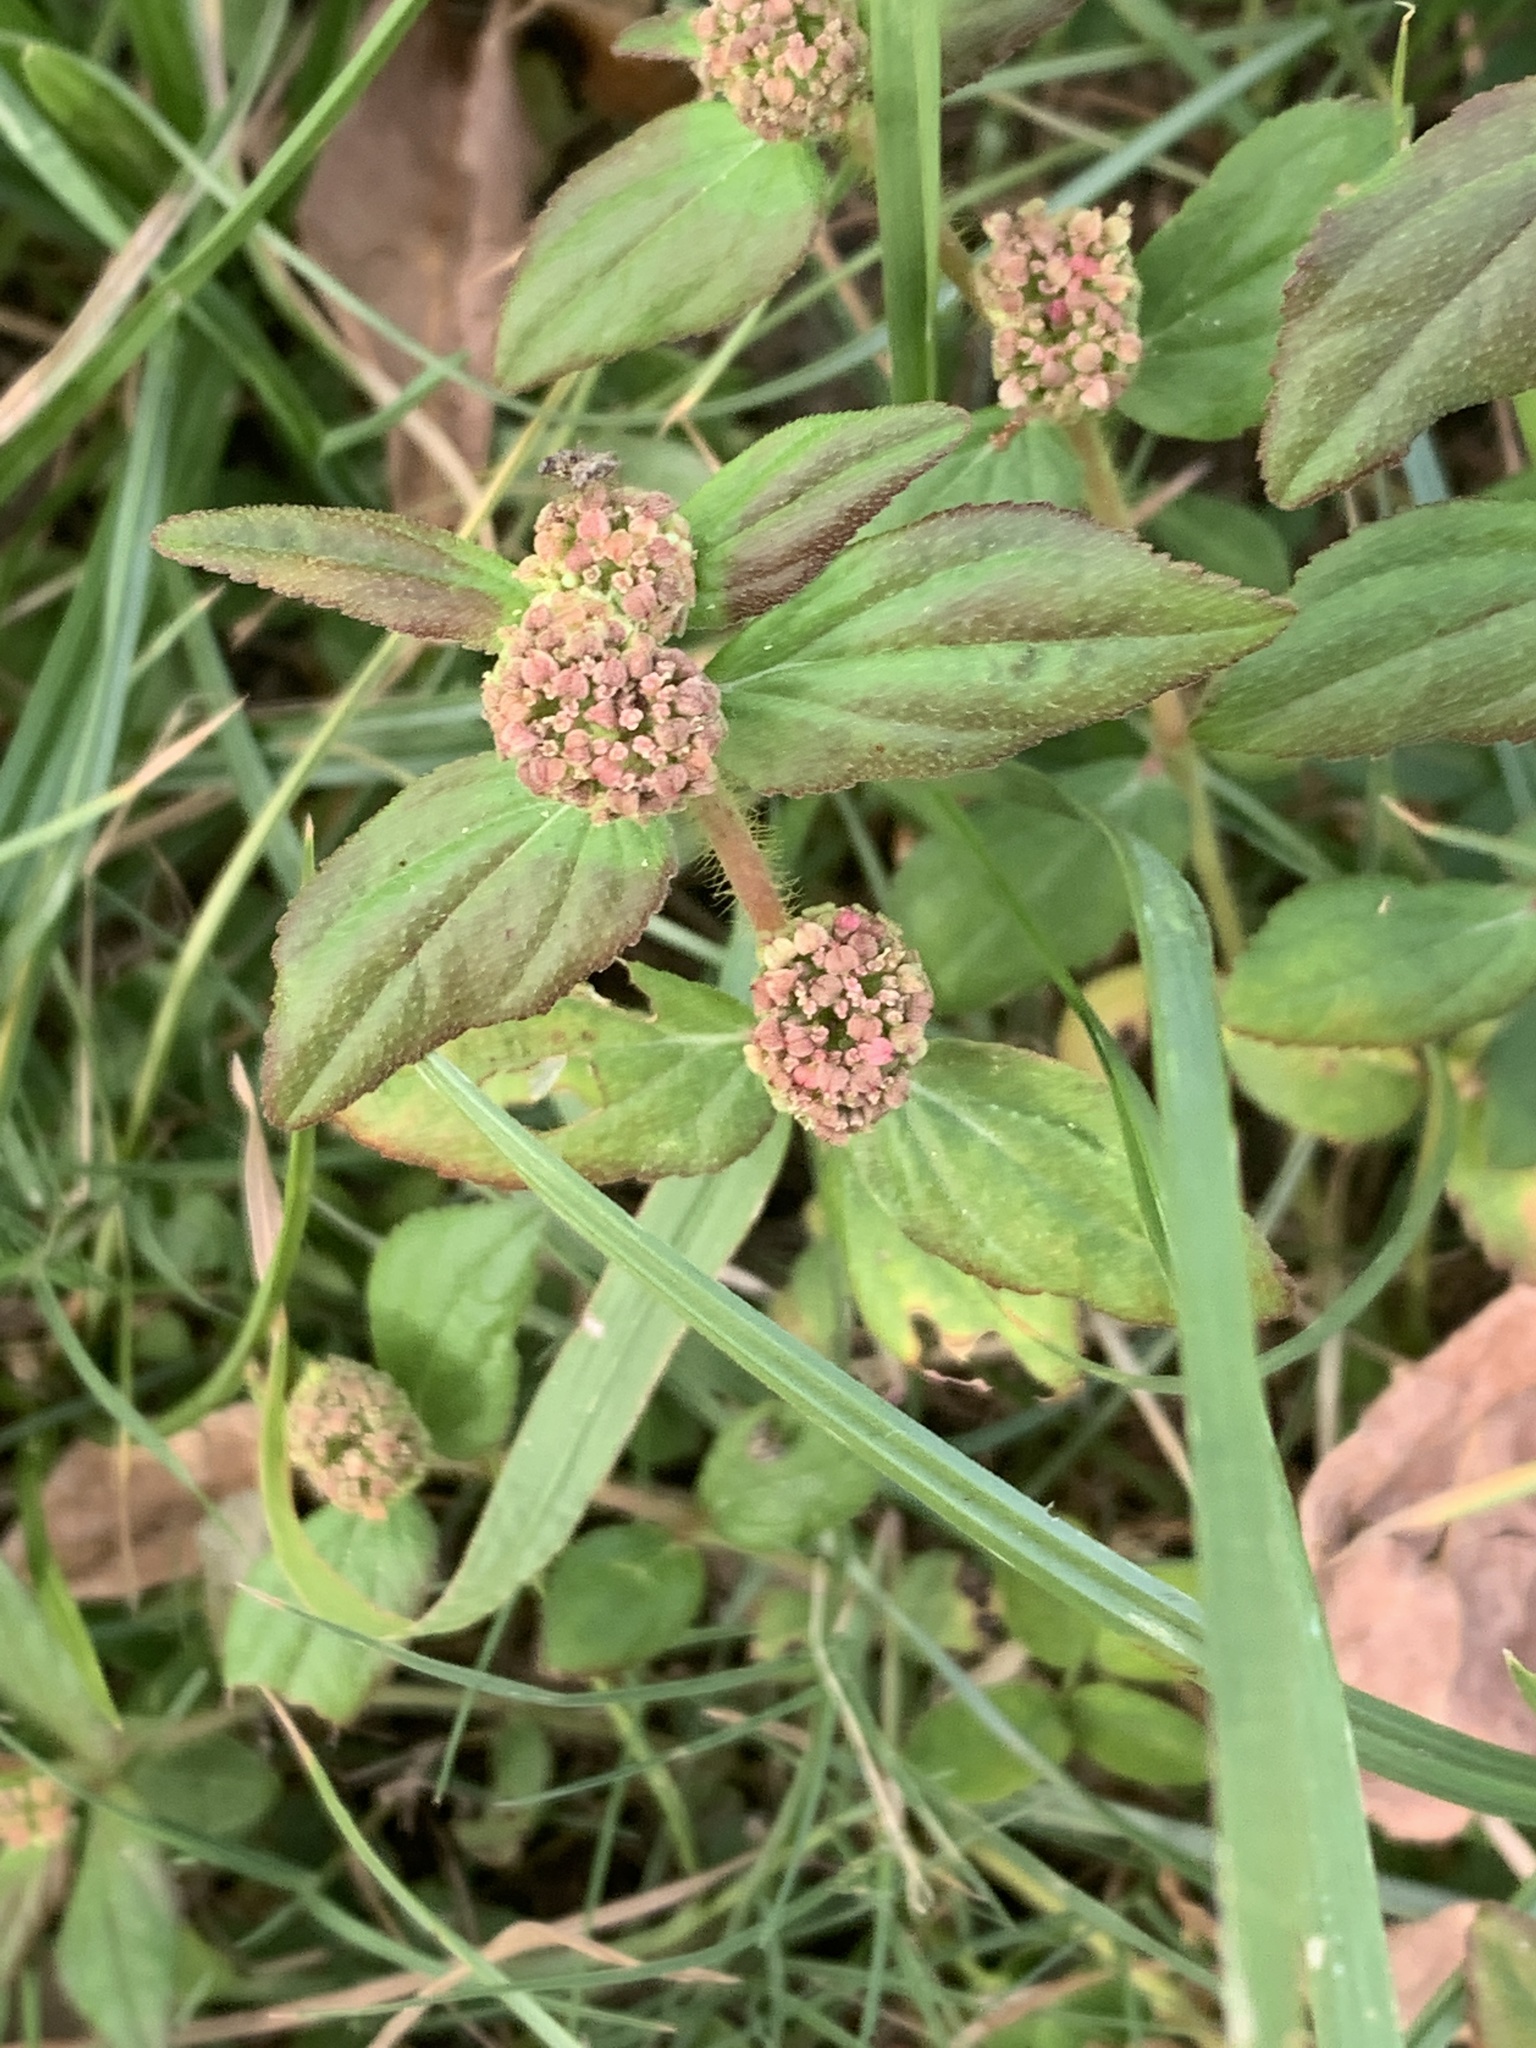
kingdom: Plantae
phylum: Tracheophyta
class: Magnoliopsida
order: Malpighiales
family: Euphorbiaceae
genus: Euphorbia
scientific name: Euphorbia hirta
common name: Pillpod sandmat
